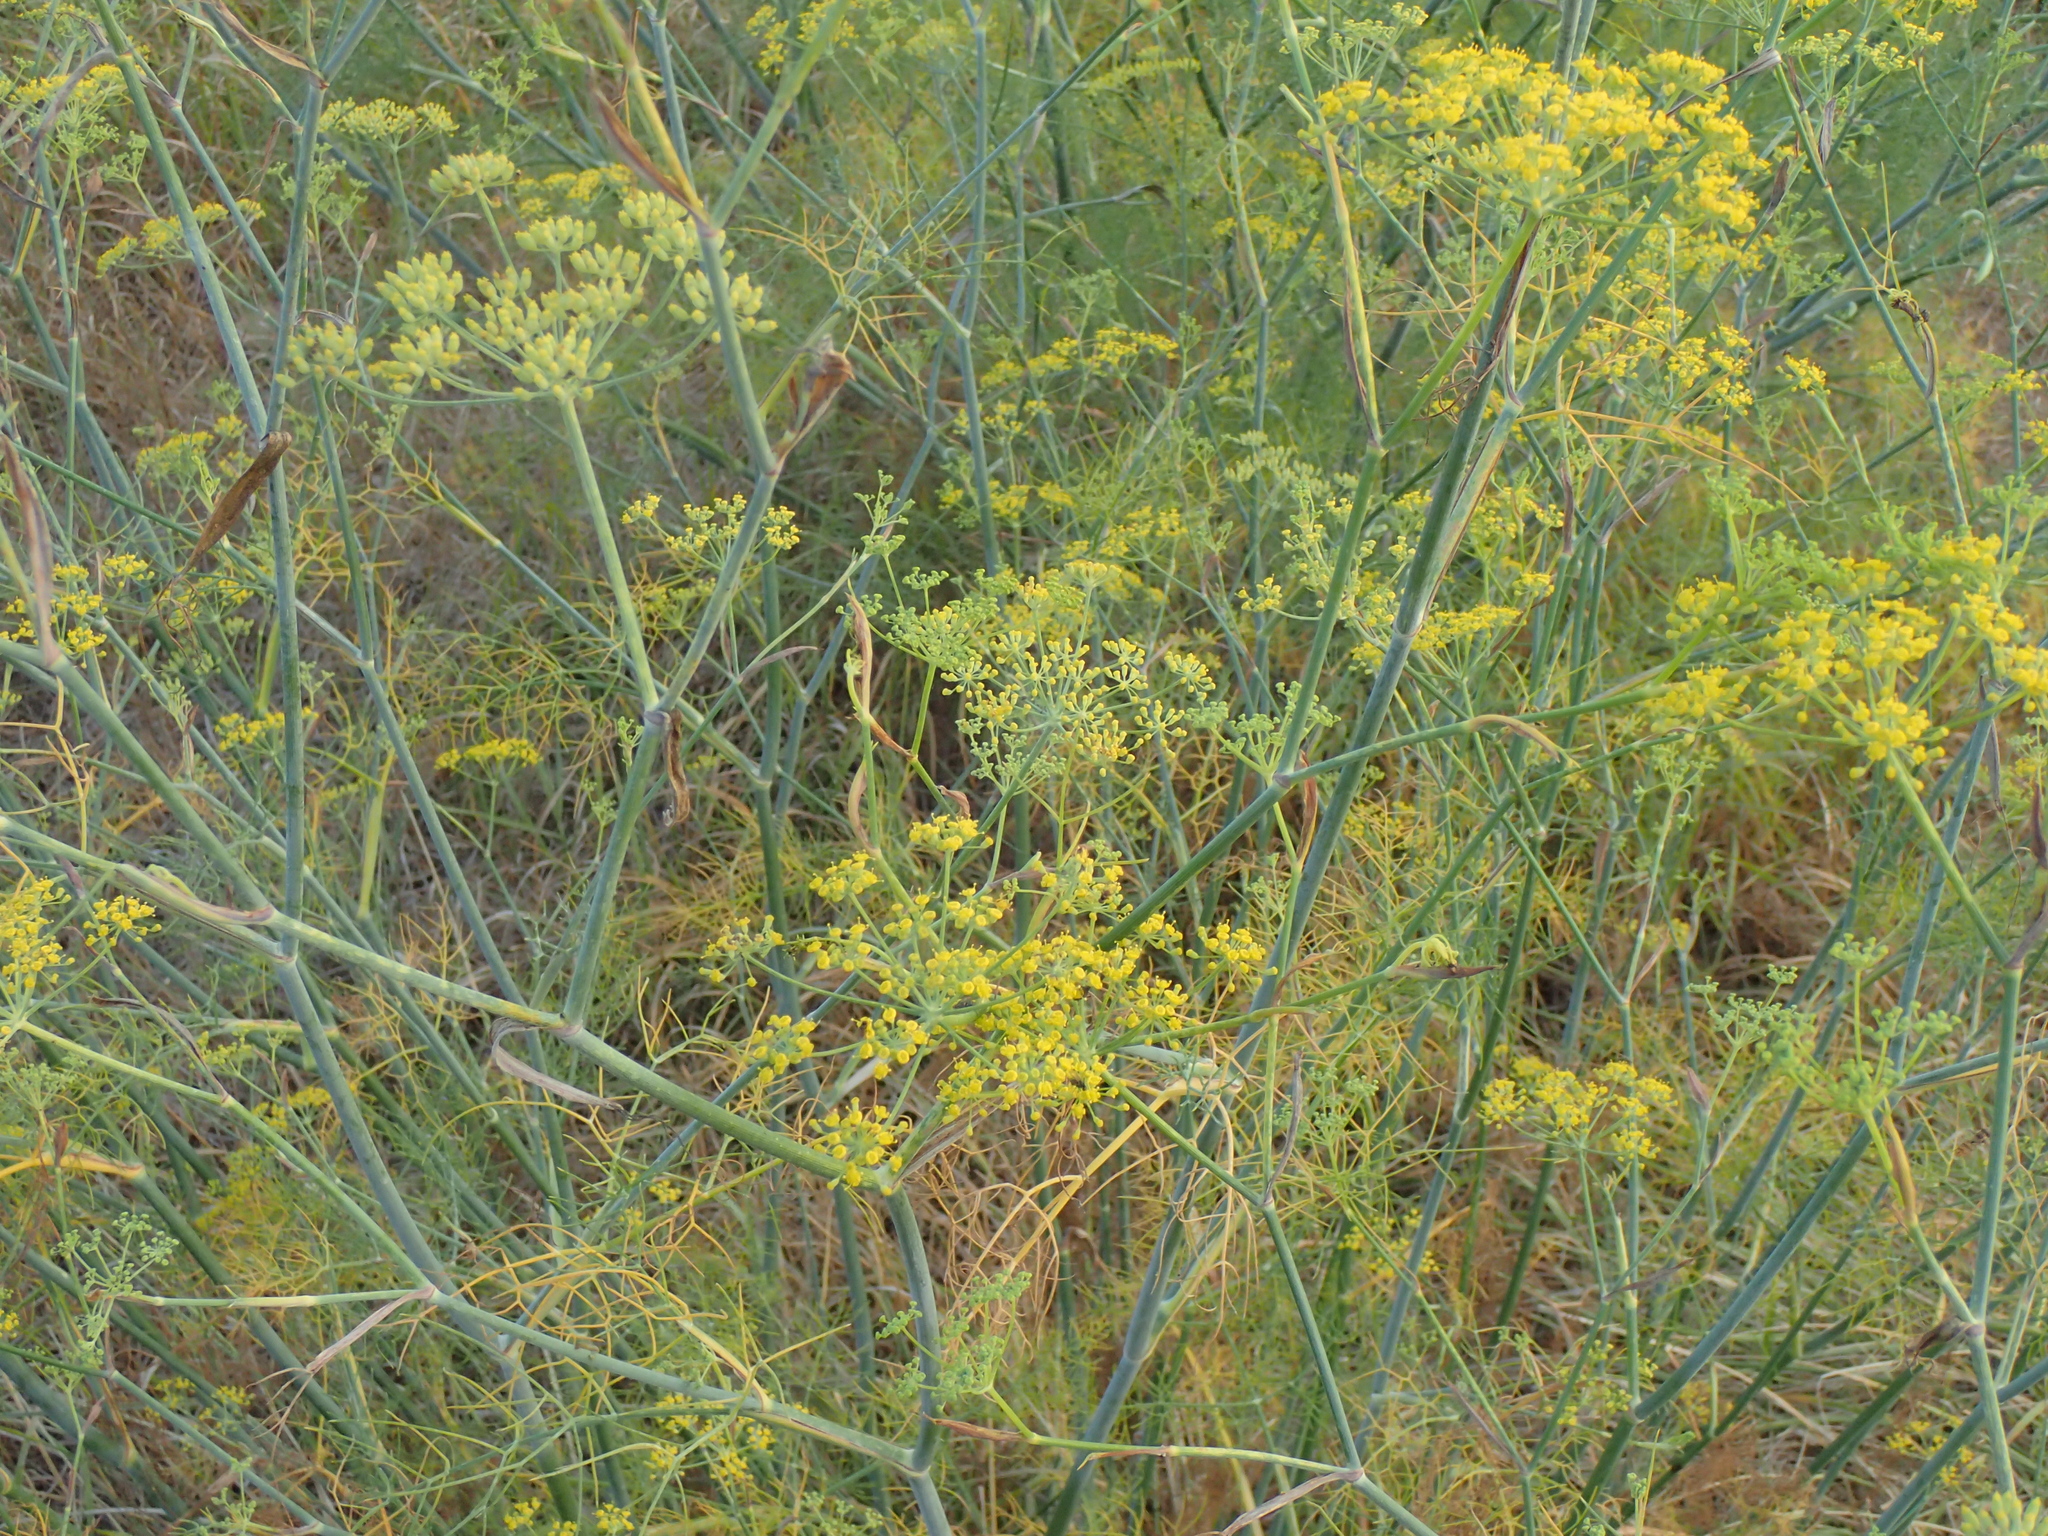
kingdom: Plantae
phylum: Tracheophyta
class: Magnoliopsida
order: Apiales
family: Apiaceae
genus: Foeniculum
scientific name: Foeniculum vulgare
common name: Fennel
